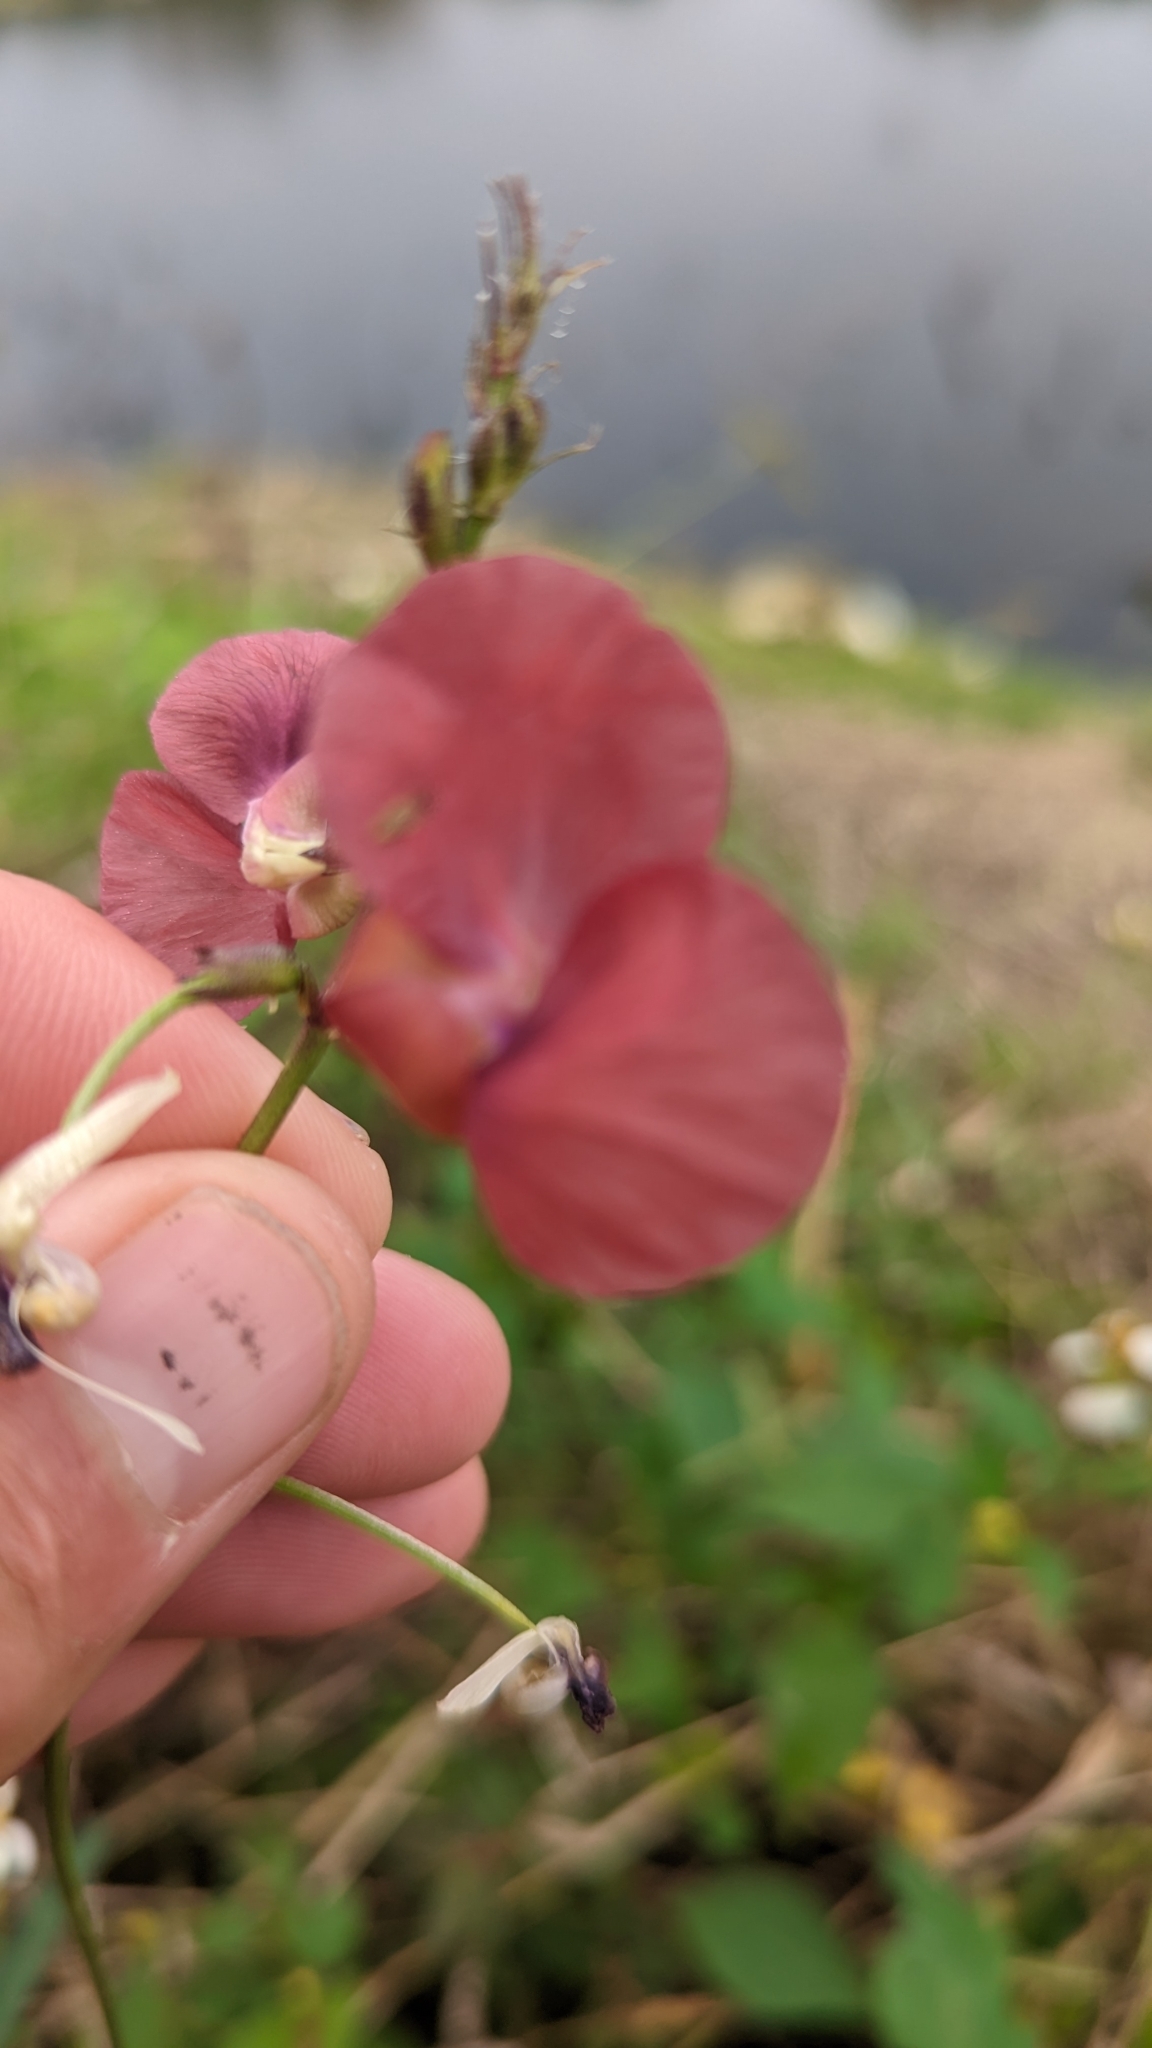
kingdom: Plantae
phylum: Tracheophyta
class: Magnoliopsida
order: Fabales
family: Fabaceae
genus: Macroptilium
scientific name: Macroptilium lathyroides
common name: Wild bushbean
